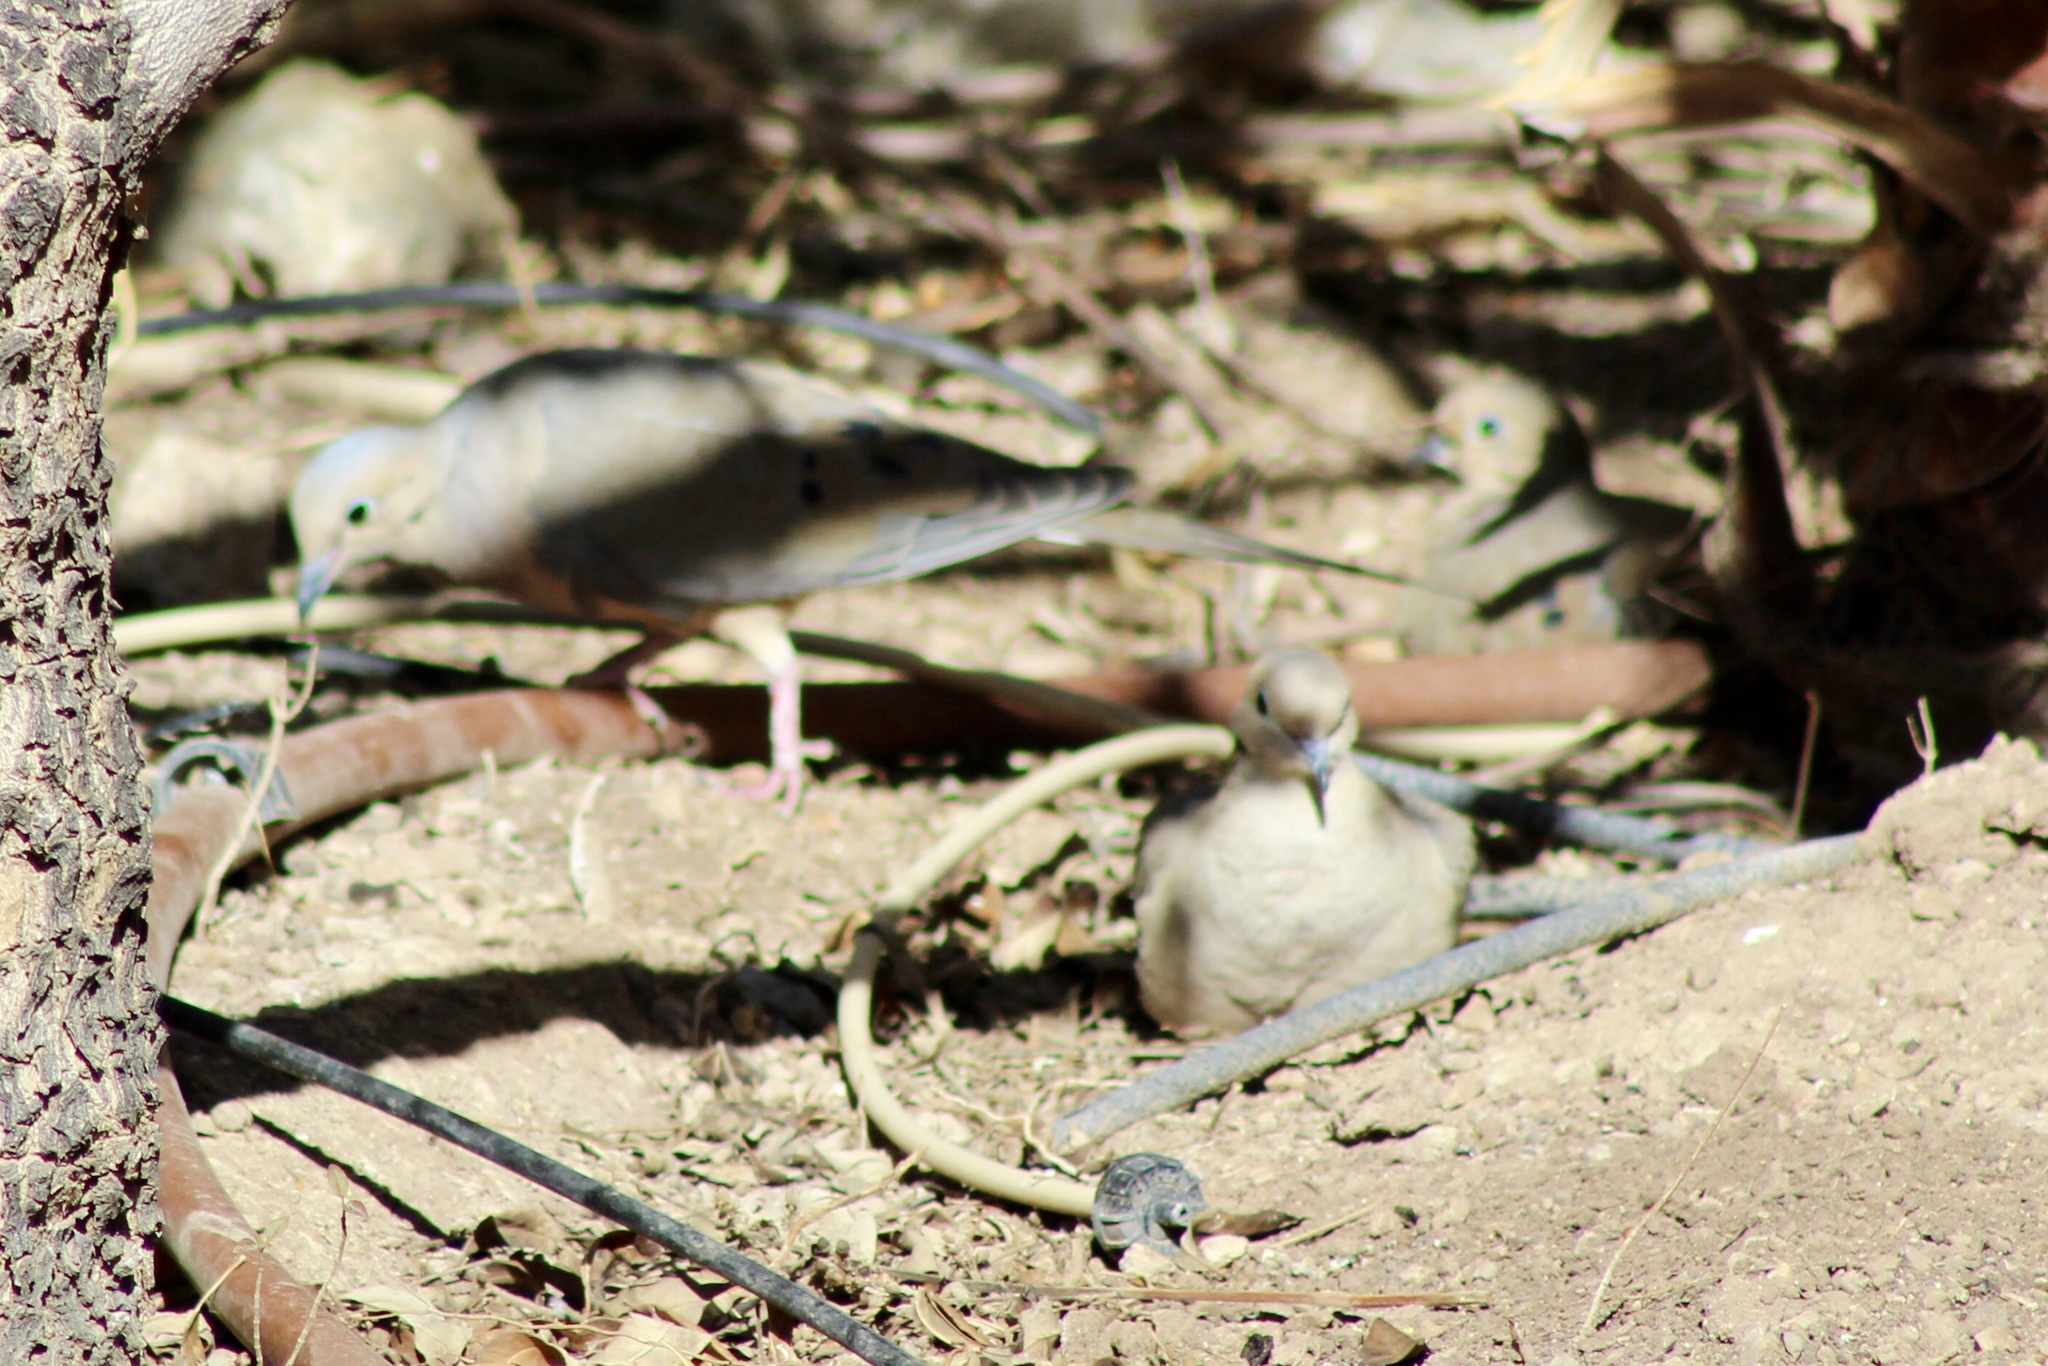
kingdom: Animalia
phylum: Chordata
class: Aves
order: Columbiformes
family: Columbidae
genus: Zenaida
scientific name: Zenaida macroura
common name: Mourning dove
